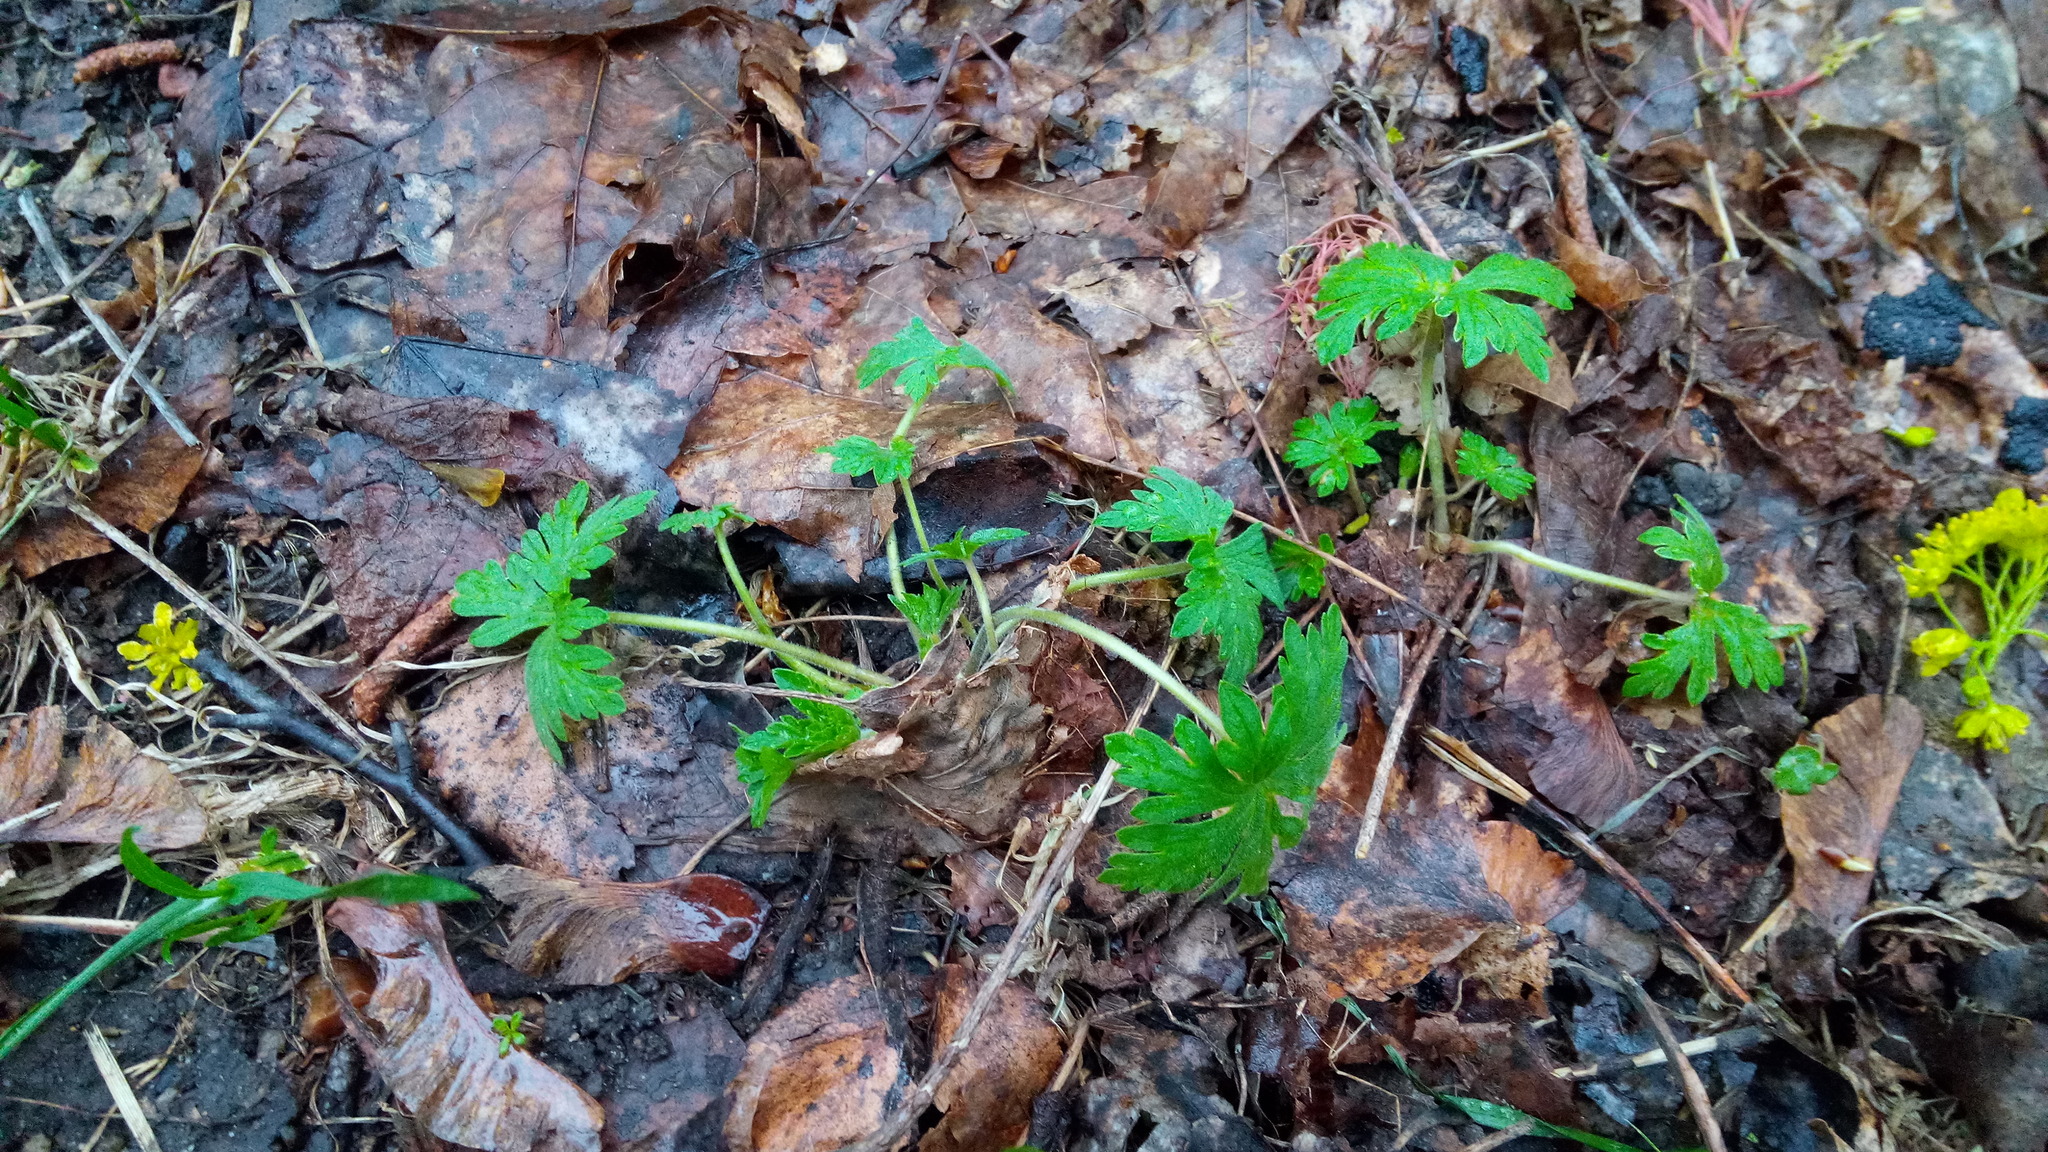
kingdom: Plantae
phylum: Tracheophyta
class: Magnoliopsida
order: Geraniales
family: Geraniaceae
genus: Geranium
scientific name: Geranium sibiricum
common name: Siberian crane's-bill
